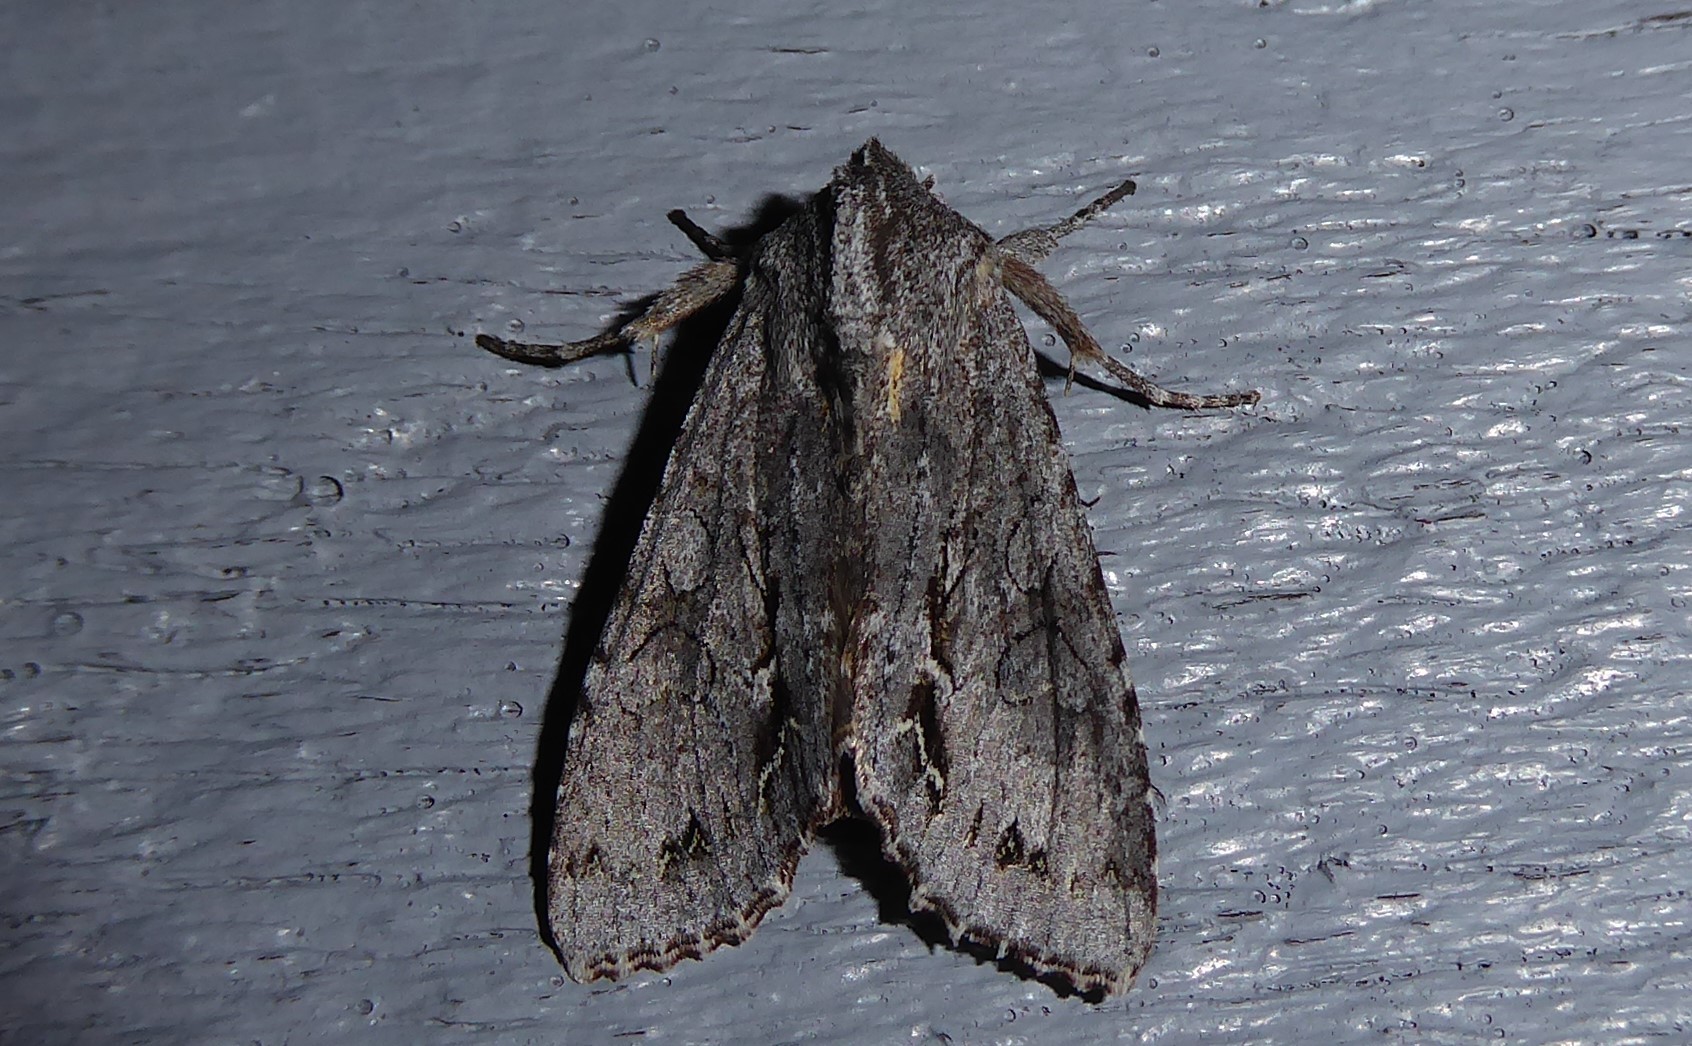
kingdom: Animalia
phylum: Arthropoda
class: Insecta
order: Lepidoptera
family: Noctuidae
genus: Ichneutica
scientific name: Ichneutica
